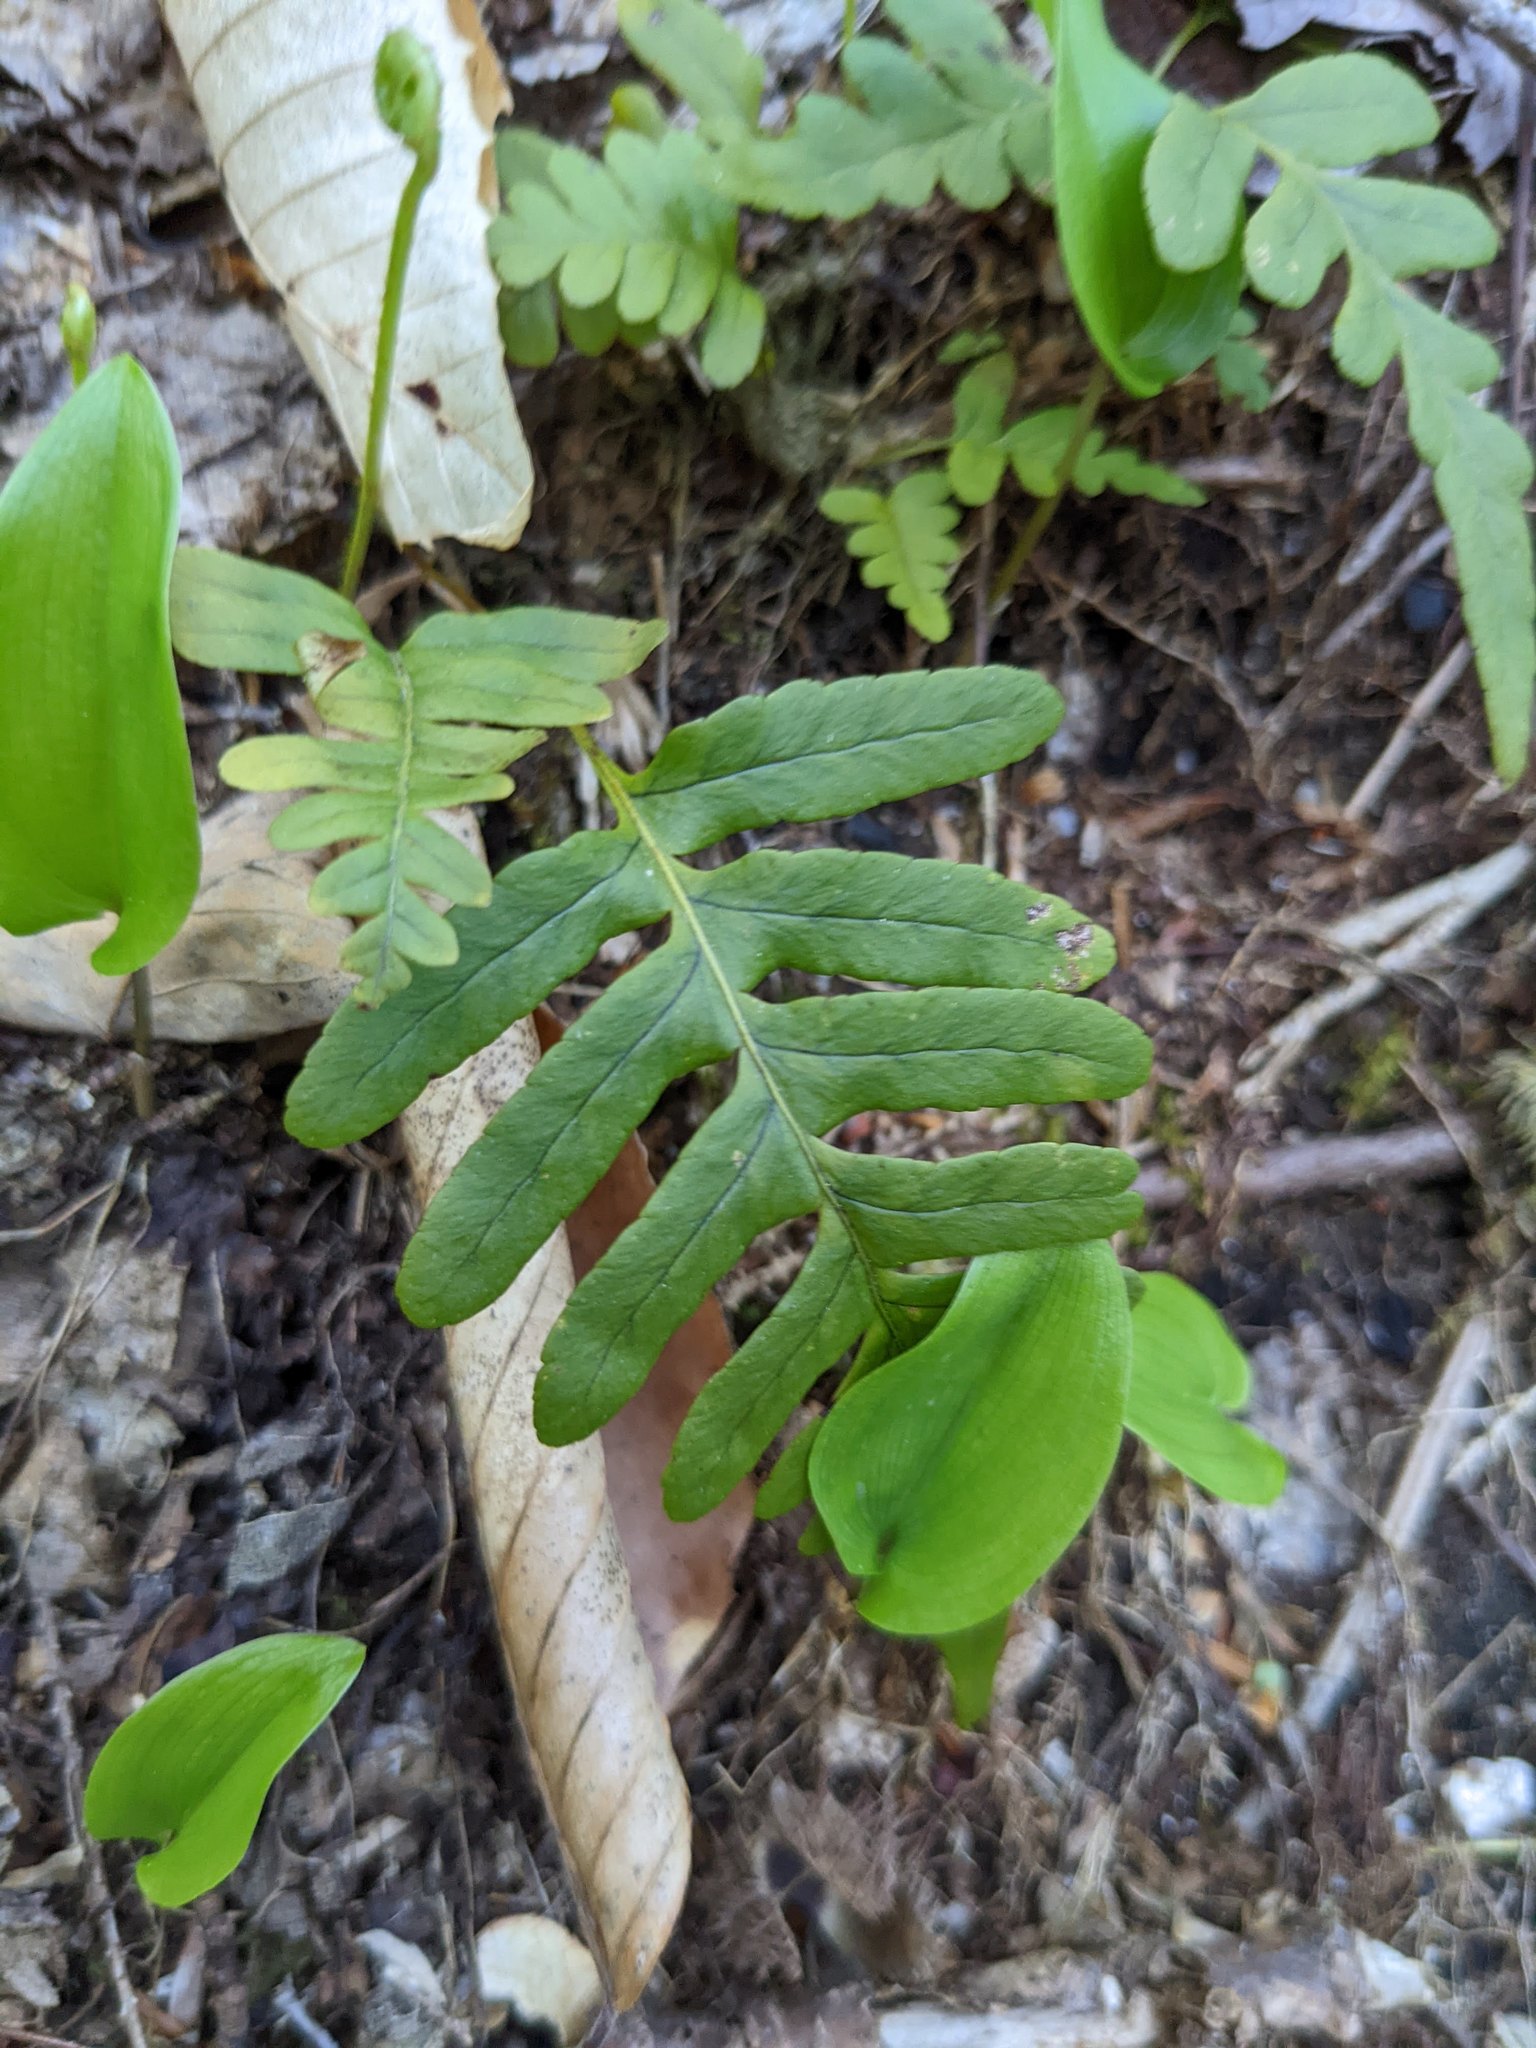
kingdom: Plantae
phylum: Tracheophyta
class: Liliopsida
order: Asparagales
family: Asparagaceae
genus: Maianthemum
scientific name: Maianthemum canadense
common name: False lily-of-the-valley
